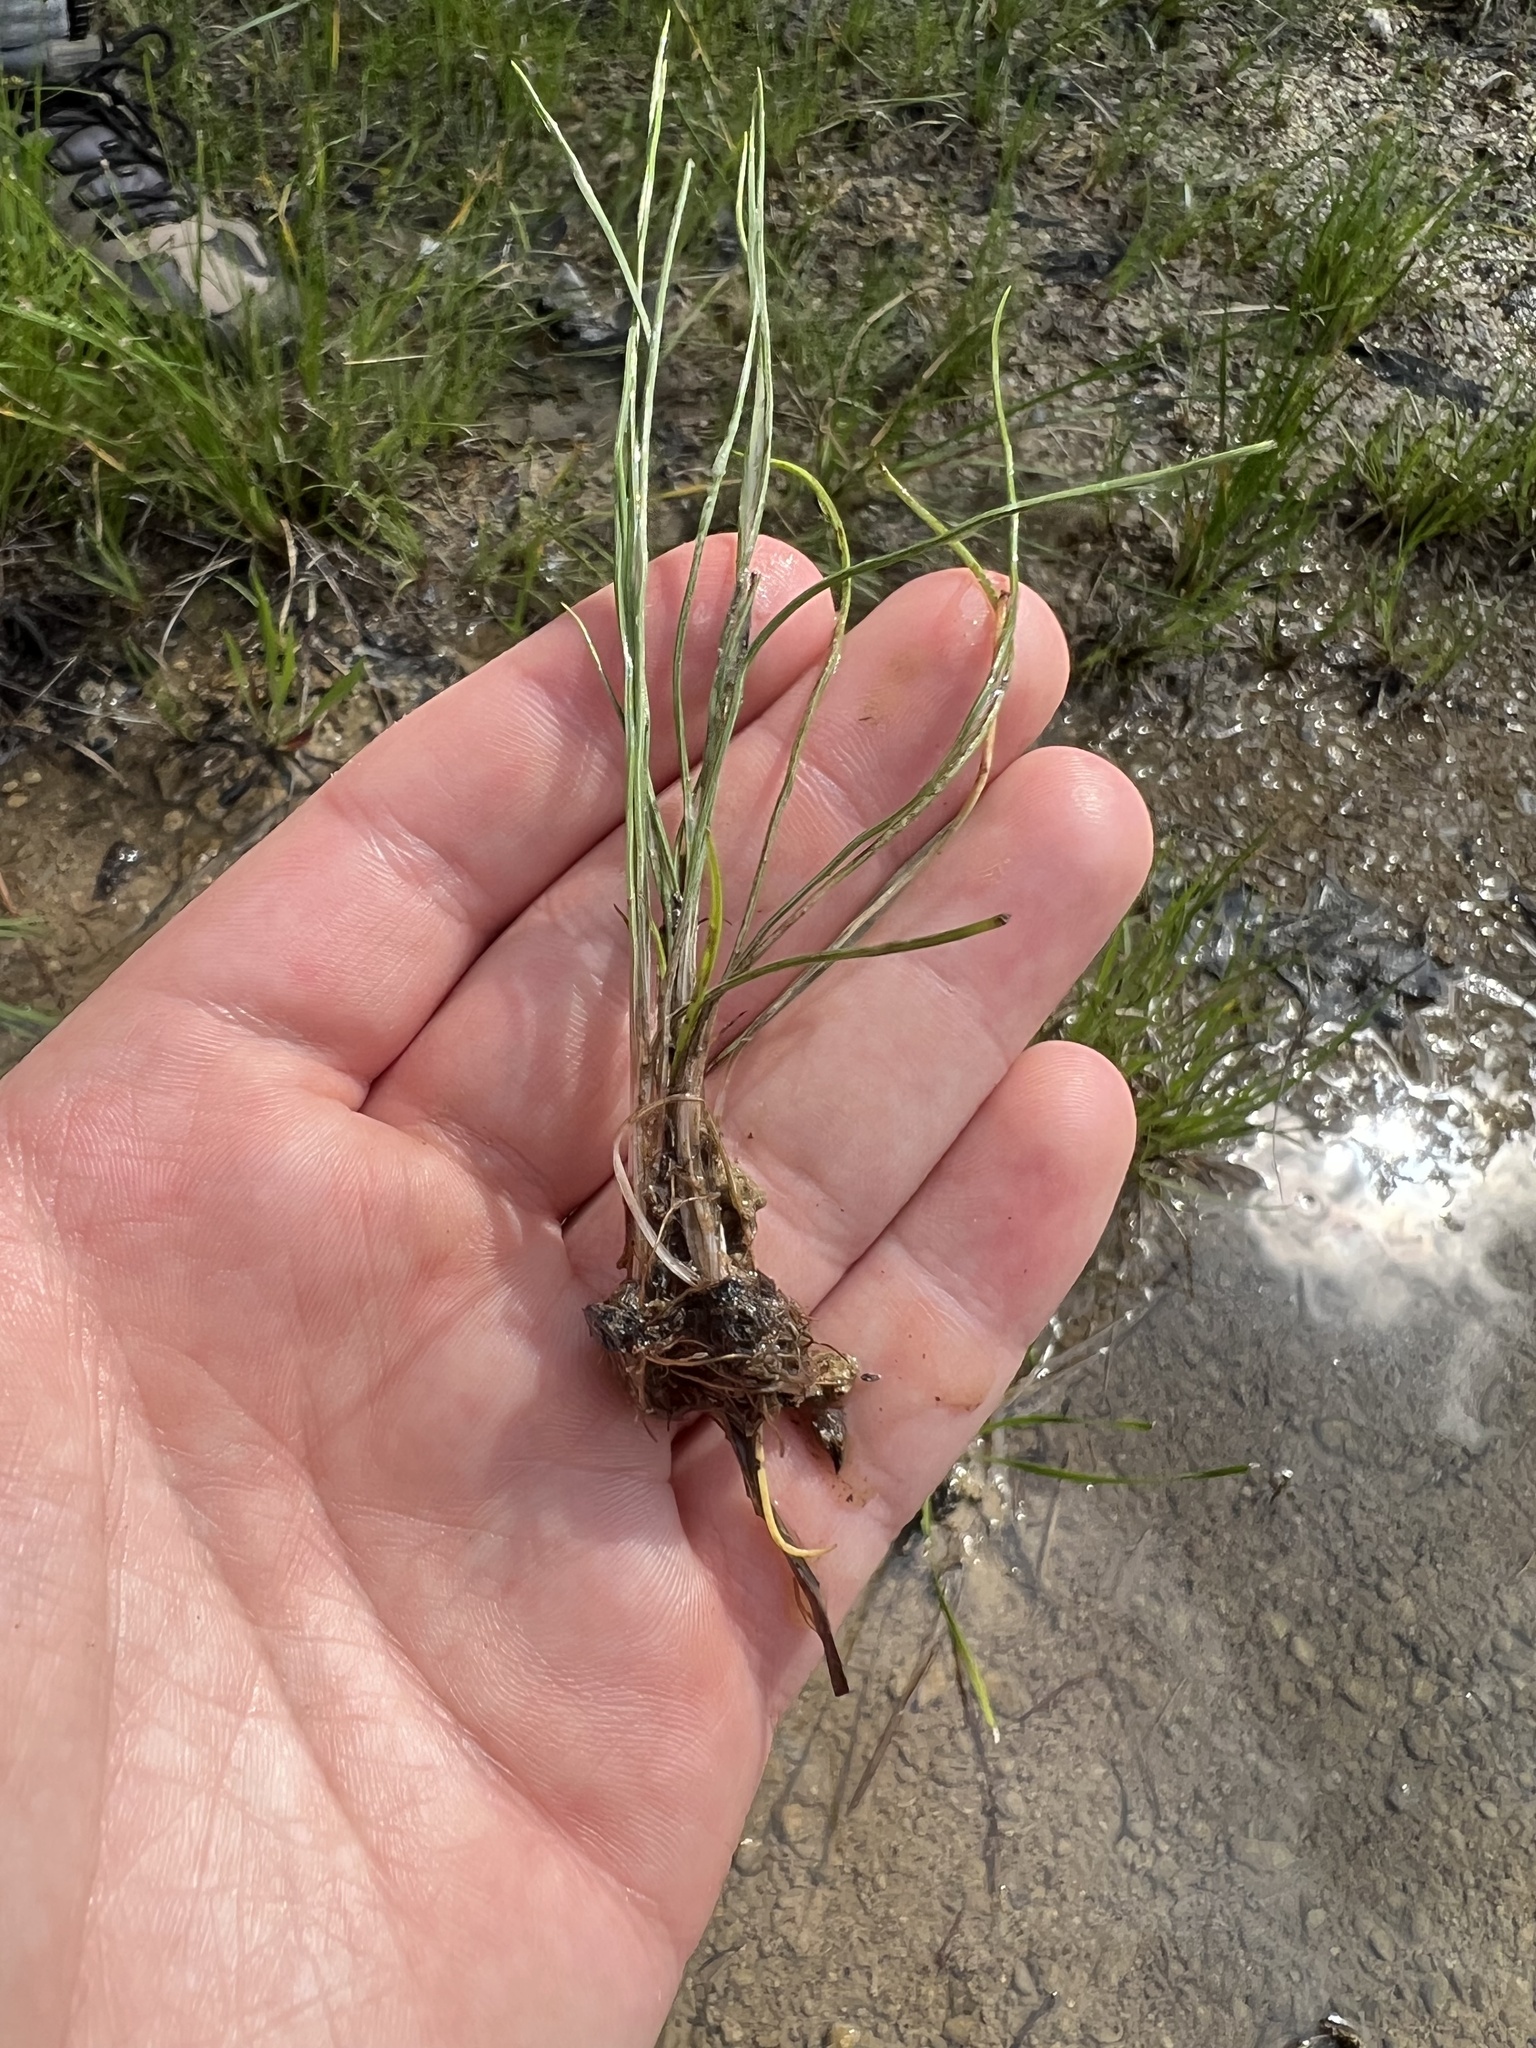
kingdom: Plantae
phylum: Tracheophyta
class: Lycopodiopsida
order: Isoetales
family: Isoetaceae
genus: Isoetes
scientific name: Isoetes butleri
